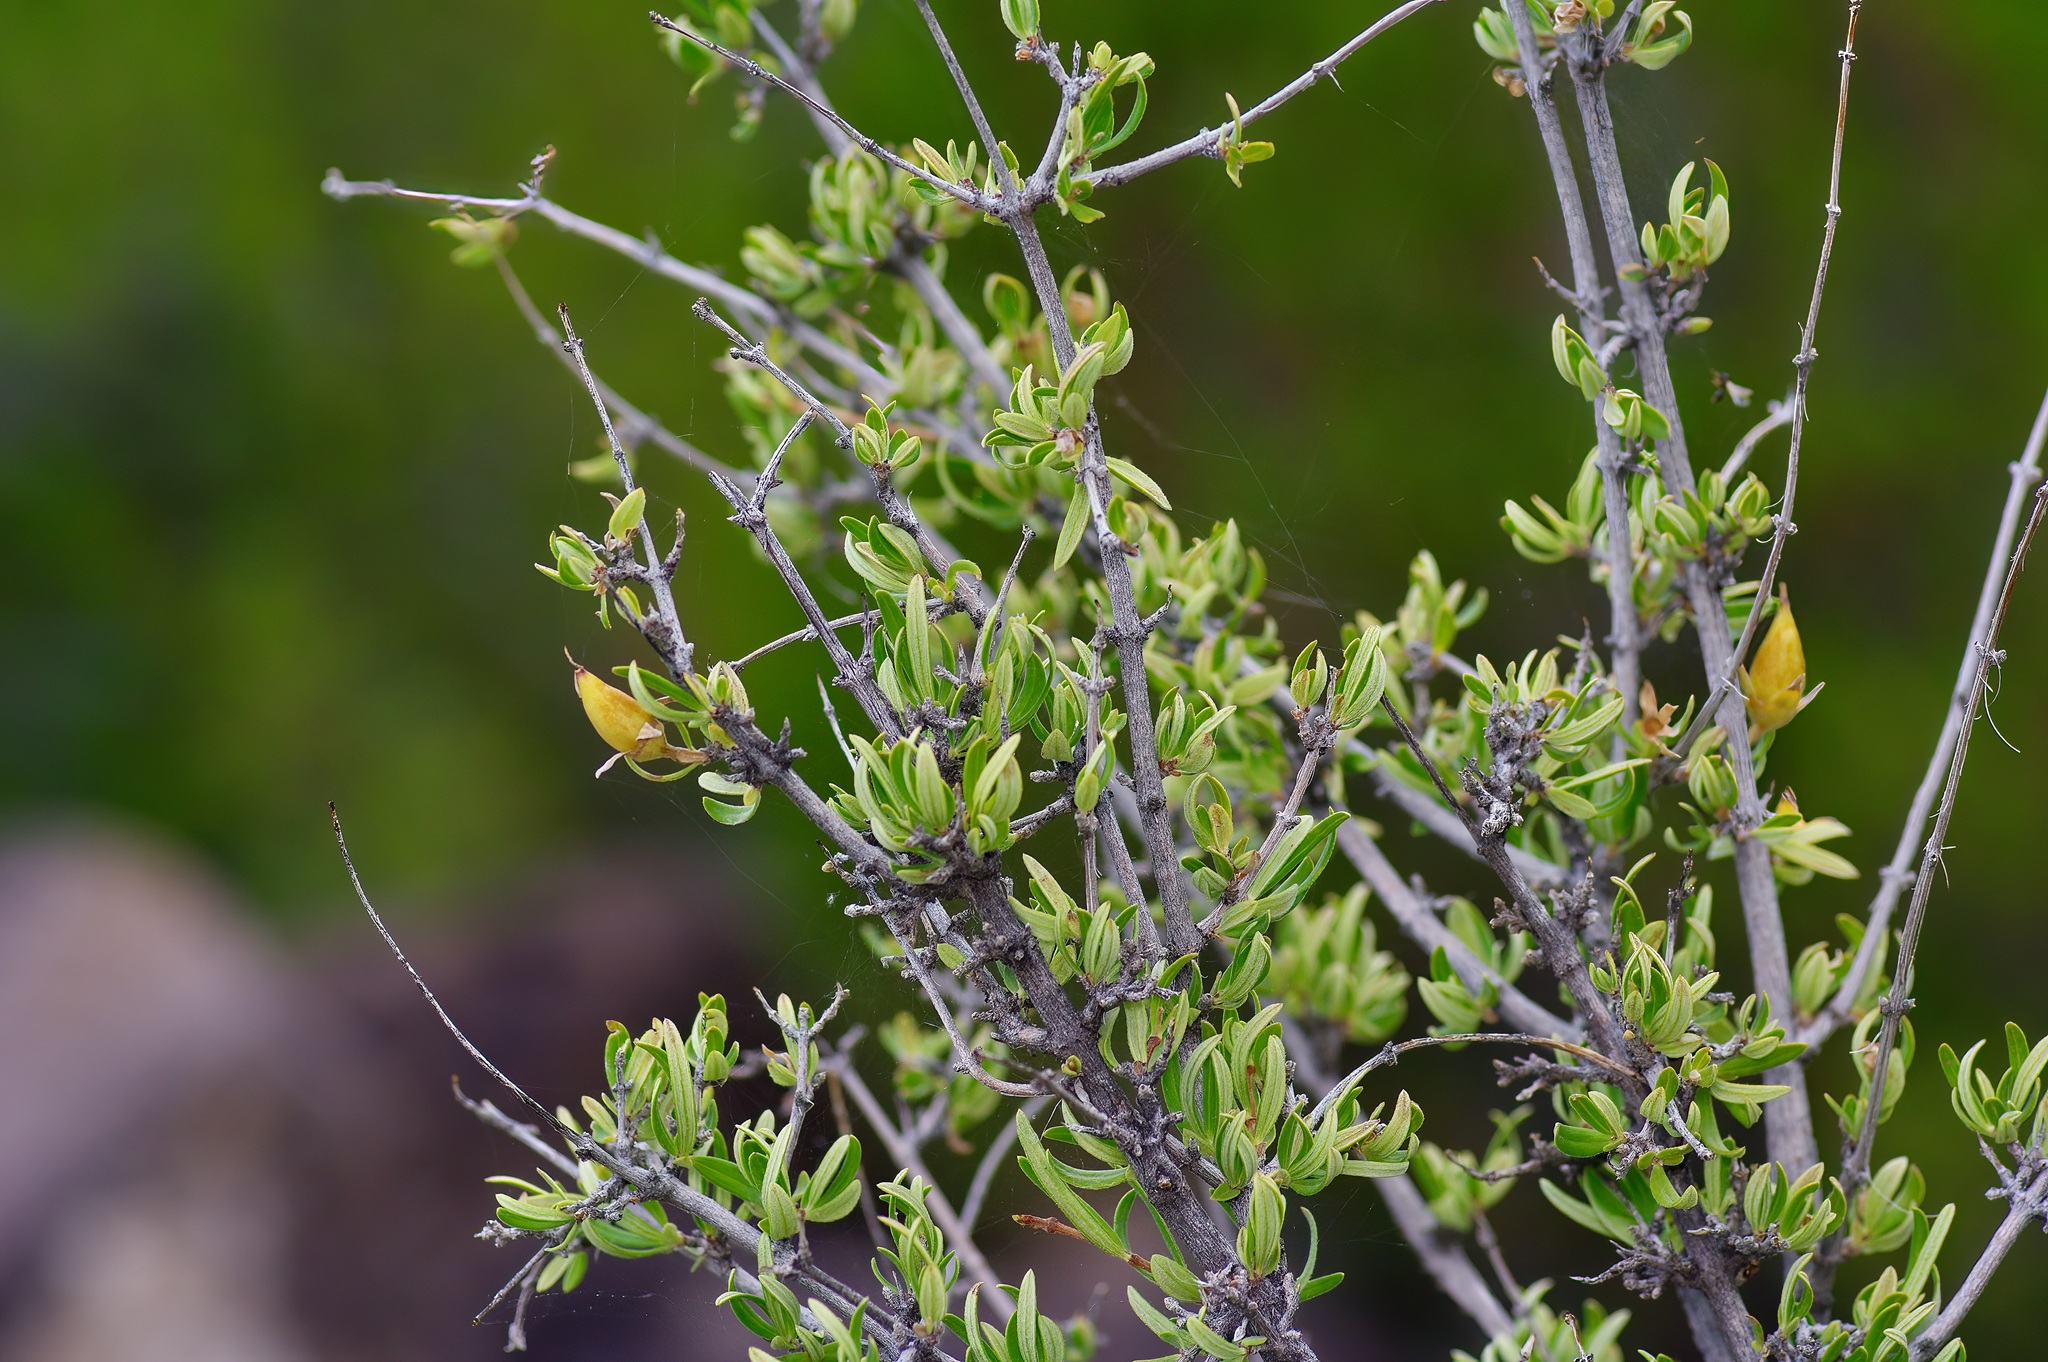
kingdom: Plantae
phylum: Tracheophyta
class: Magnoliopsida
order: Cornales
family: Hydrangeaceae
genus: Fendlera
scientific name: Fendlera rupicola
